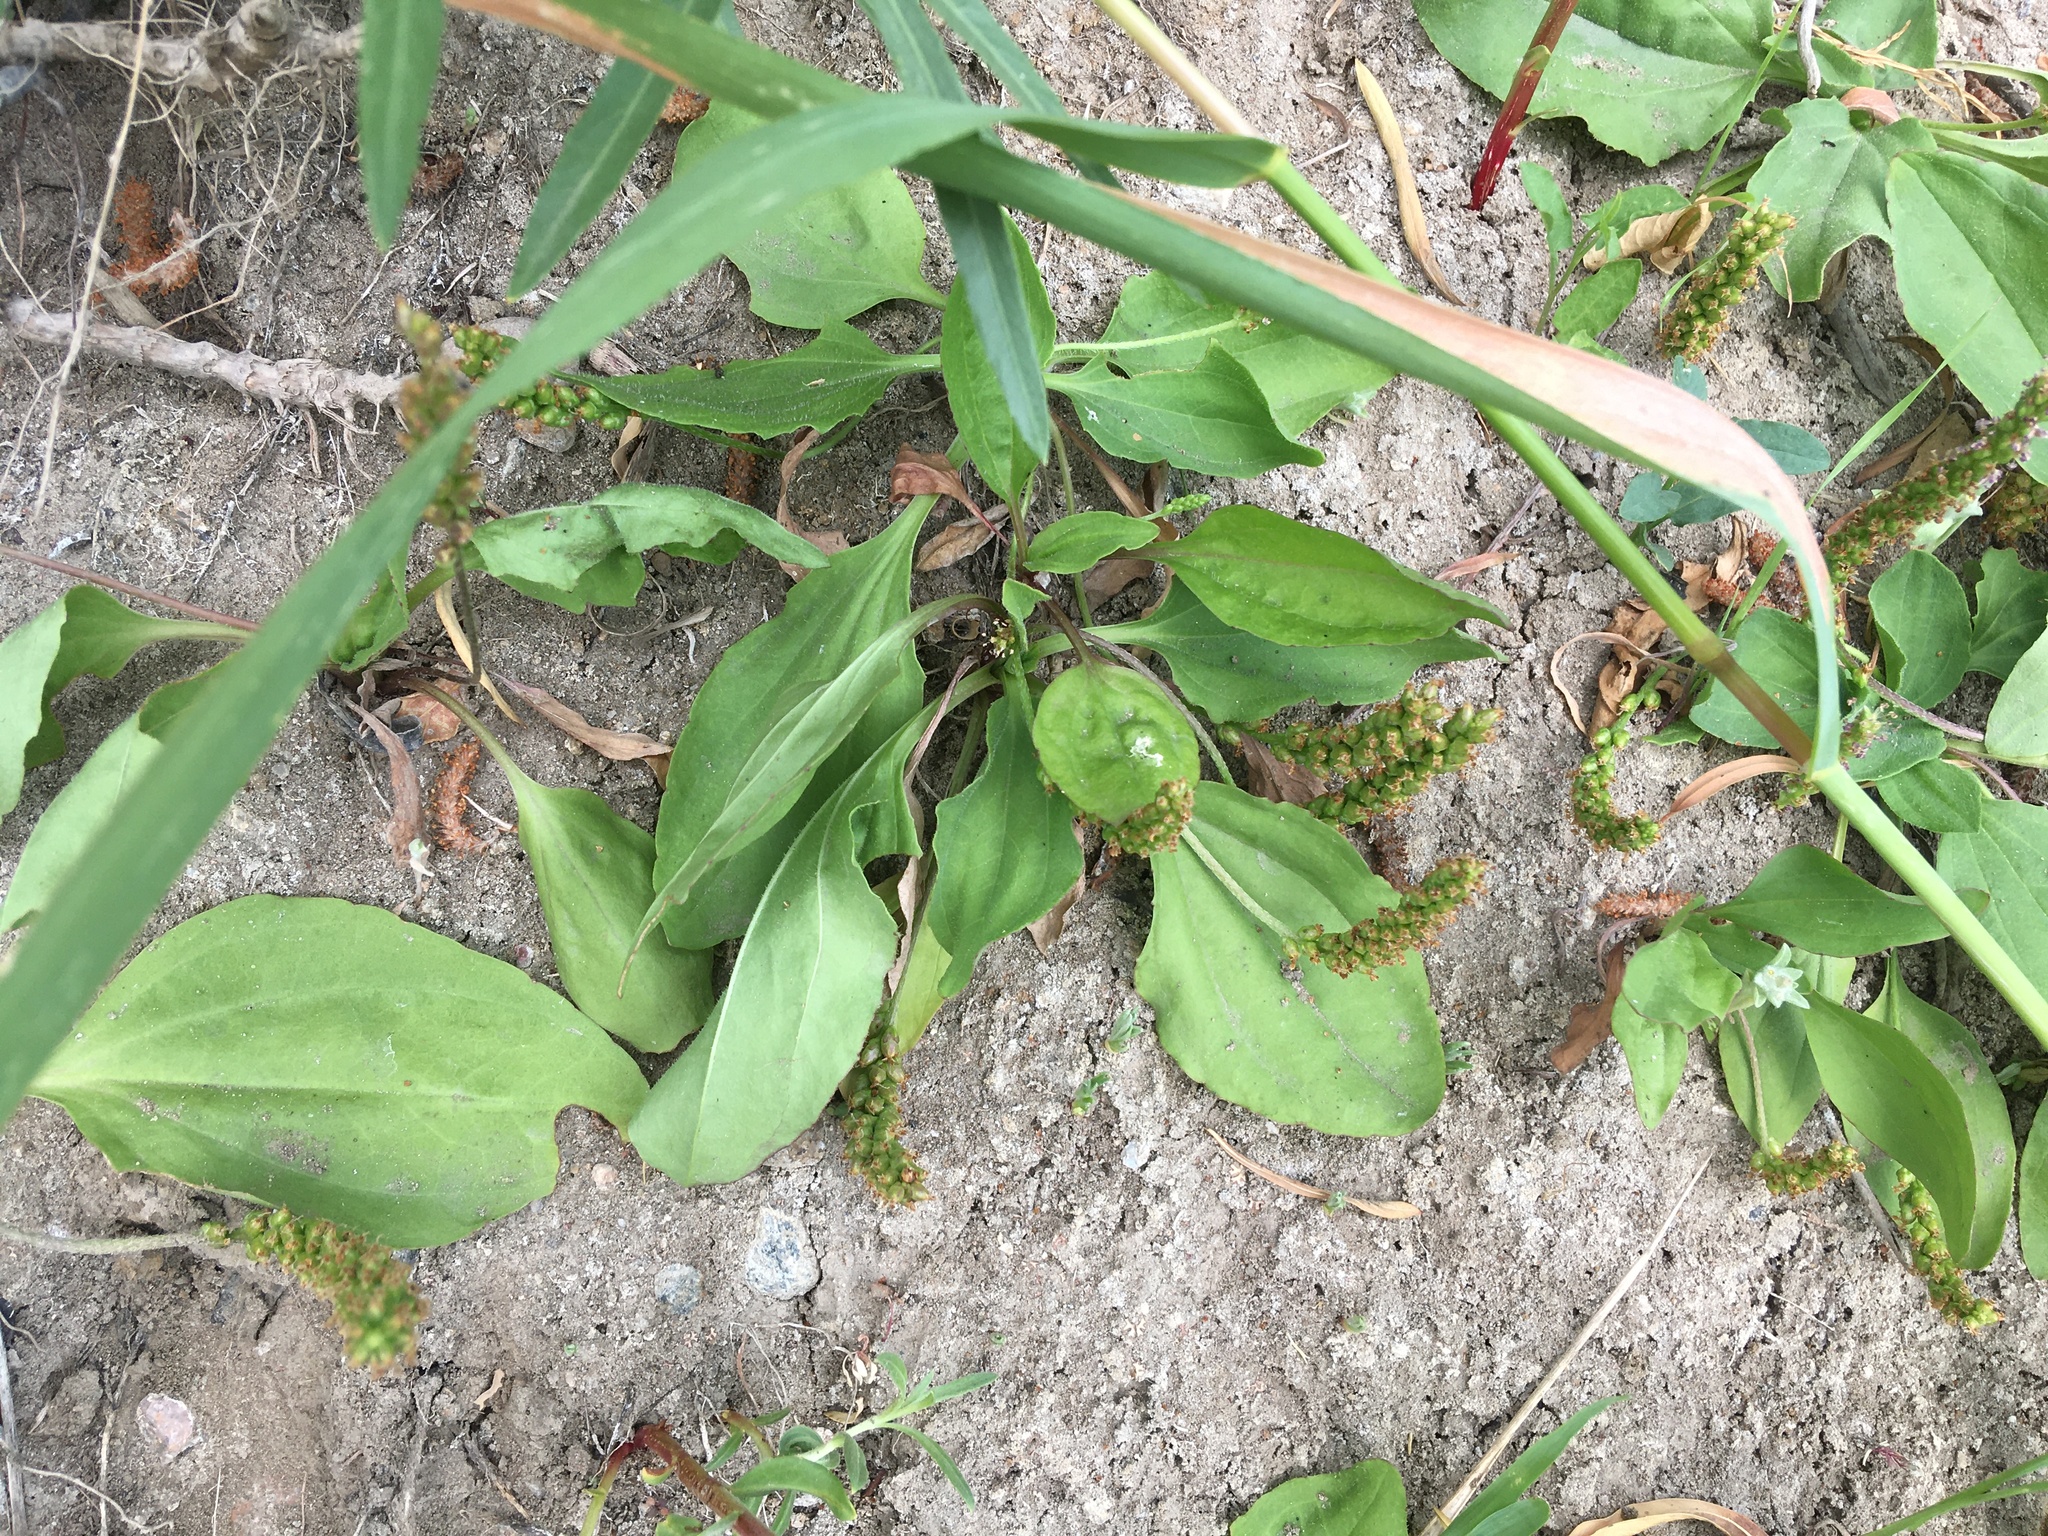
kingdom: Plantae
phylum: Tracheophyta
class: Magnoliopsida
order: Lamiales
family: Plantaginaceae
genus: Plantago
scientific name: Plantago major
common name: Common plantain
